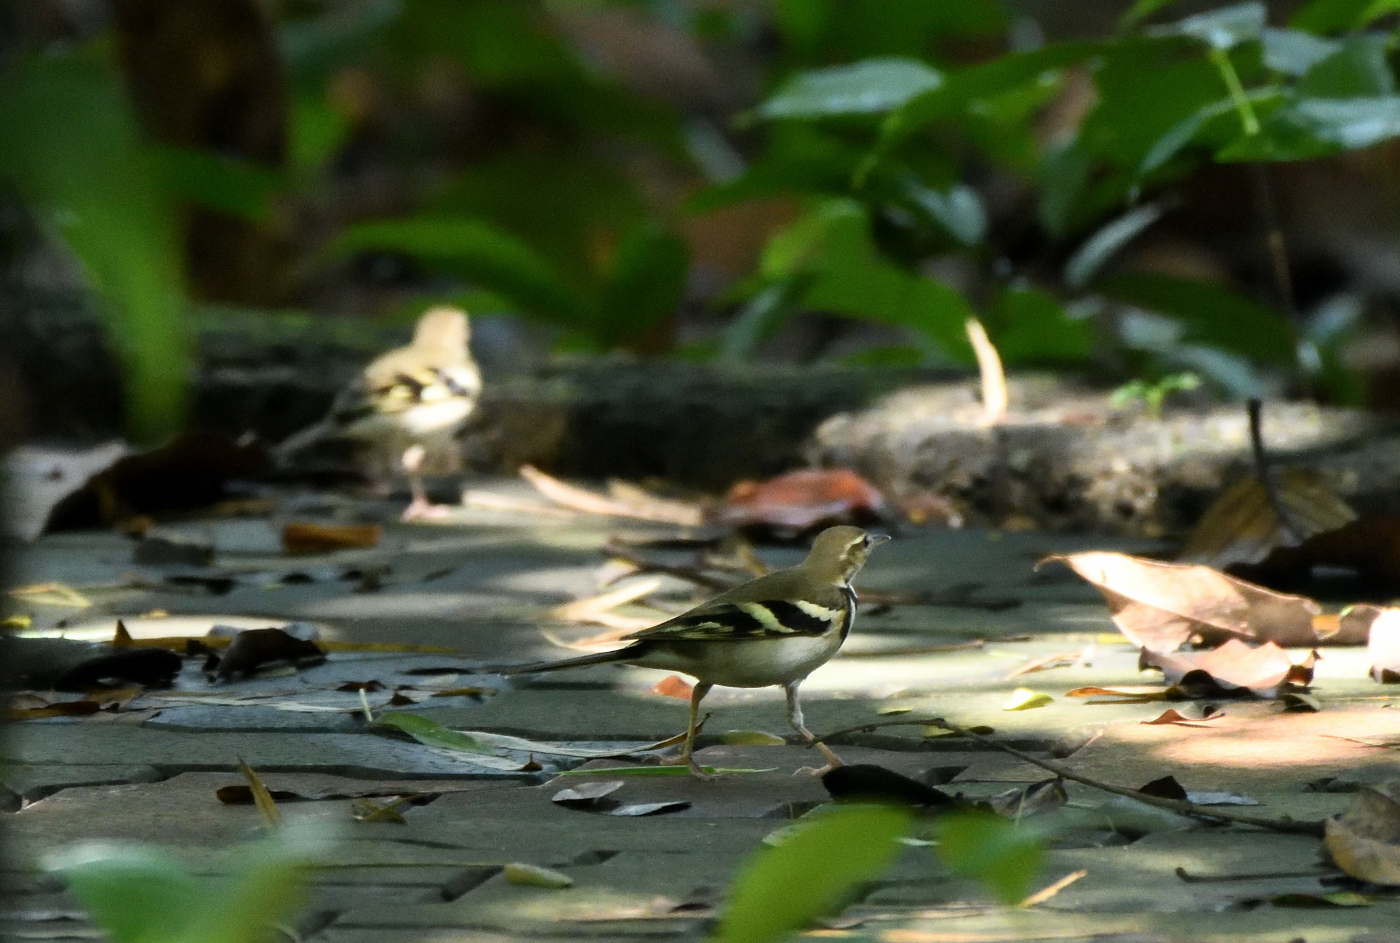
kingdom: Animalia
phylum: Chordata
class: Aves
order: Passeriformes
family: Motacillidae
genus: Dendronanthus
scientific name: Dendronanthus indicus
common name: Forest wagtail
